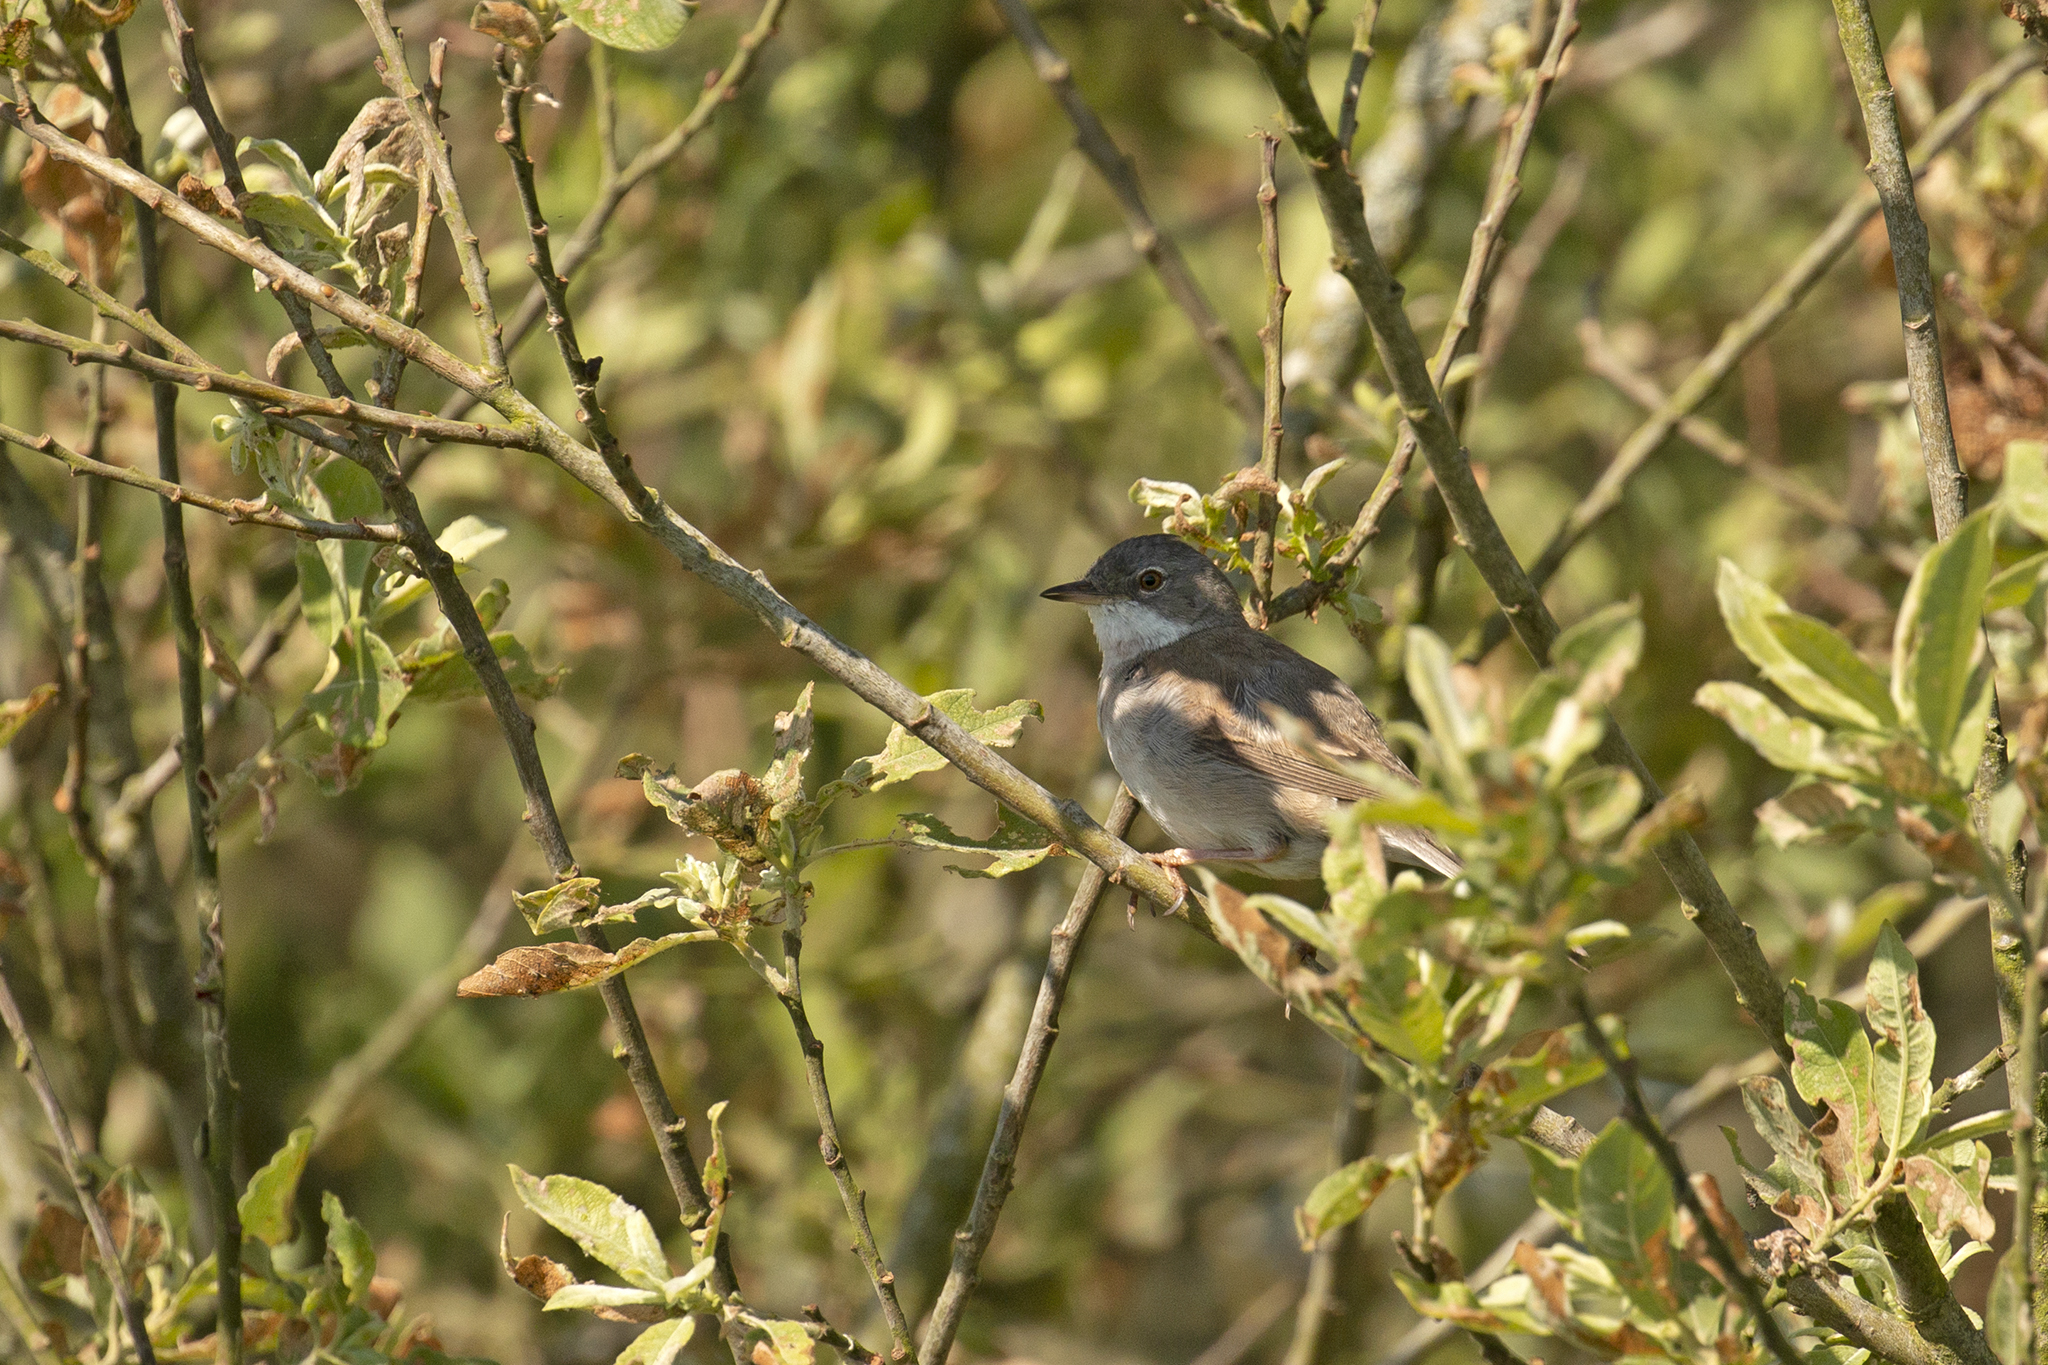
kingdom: Animalia
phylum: Chordata
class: Aves
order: Passeriformes
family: Sylviidae
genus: Sylvia
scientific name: Sylvia communis
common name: Common whitethroat
